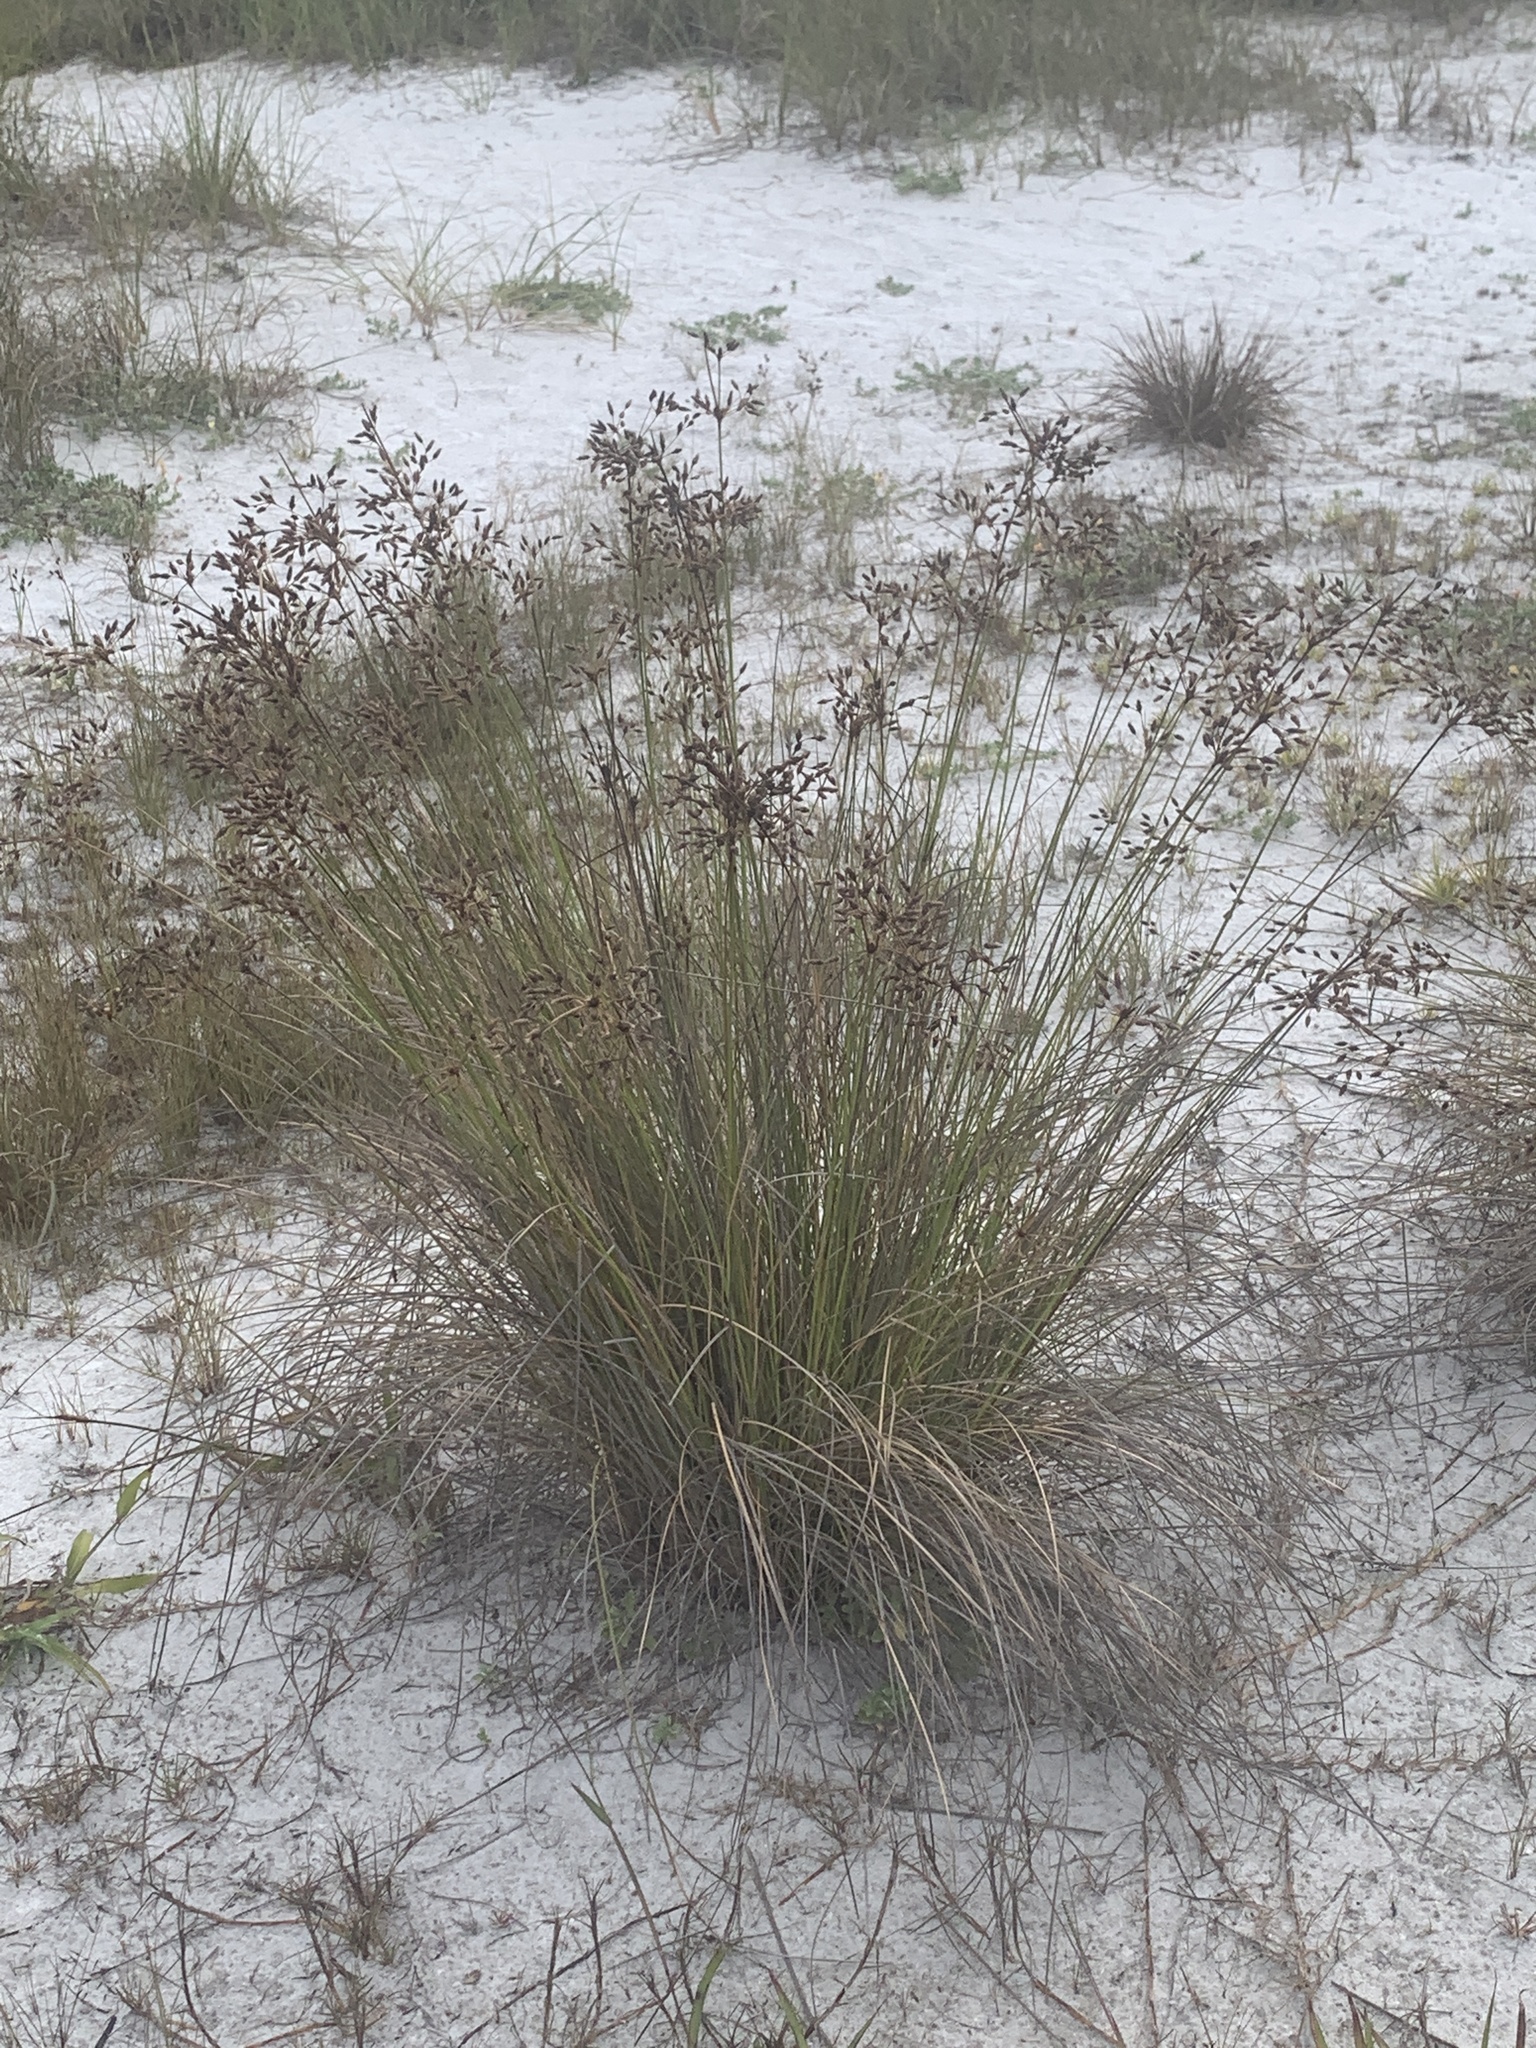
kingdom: Plantae
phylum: Tracheophyta
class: Liliopsida
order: Poales
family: Cyperaceae
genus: Fimbristylis
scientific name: Fimbristylis spadicea
